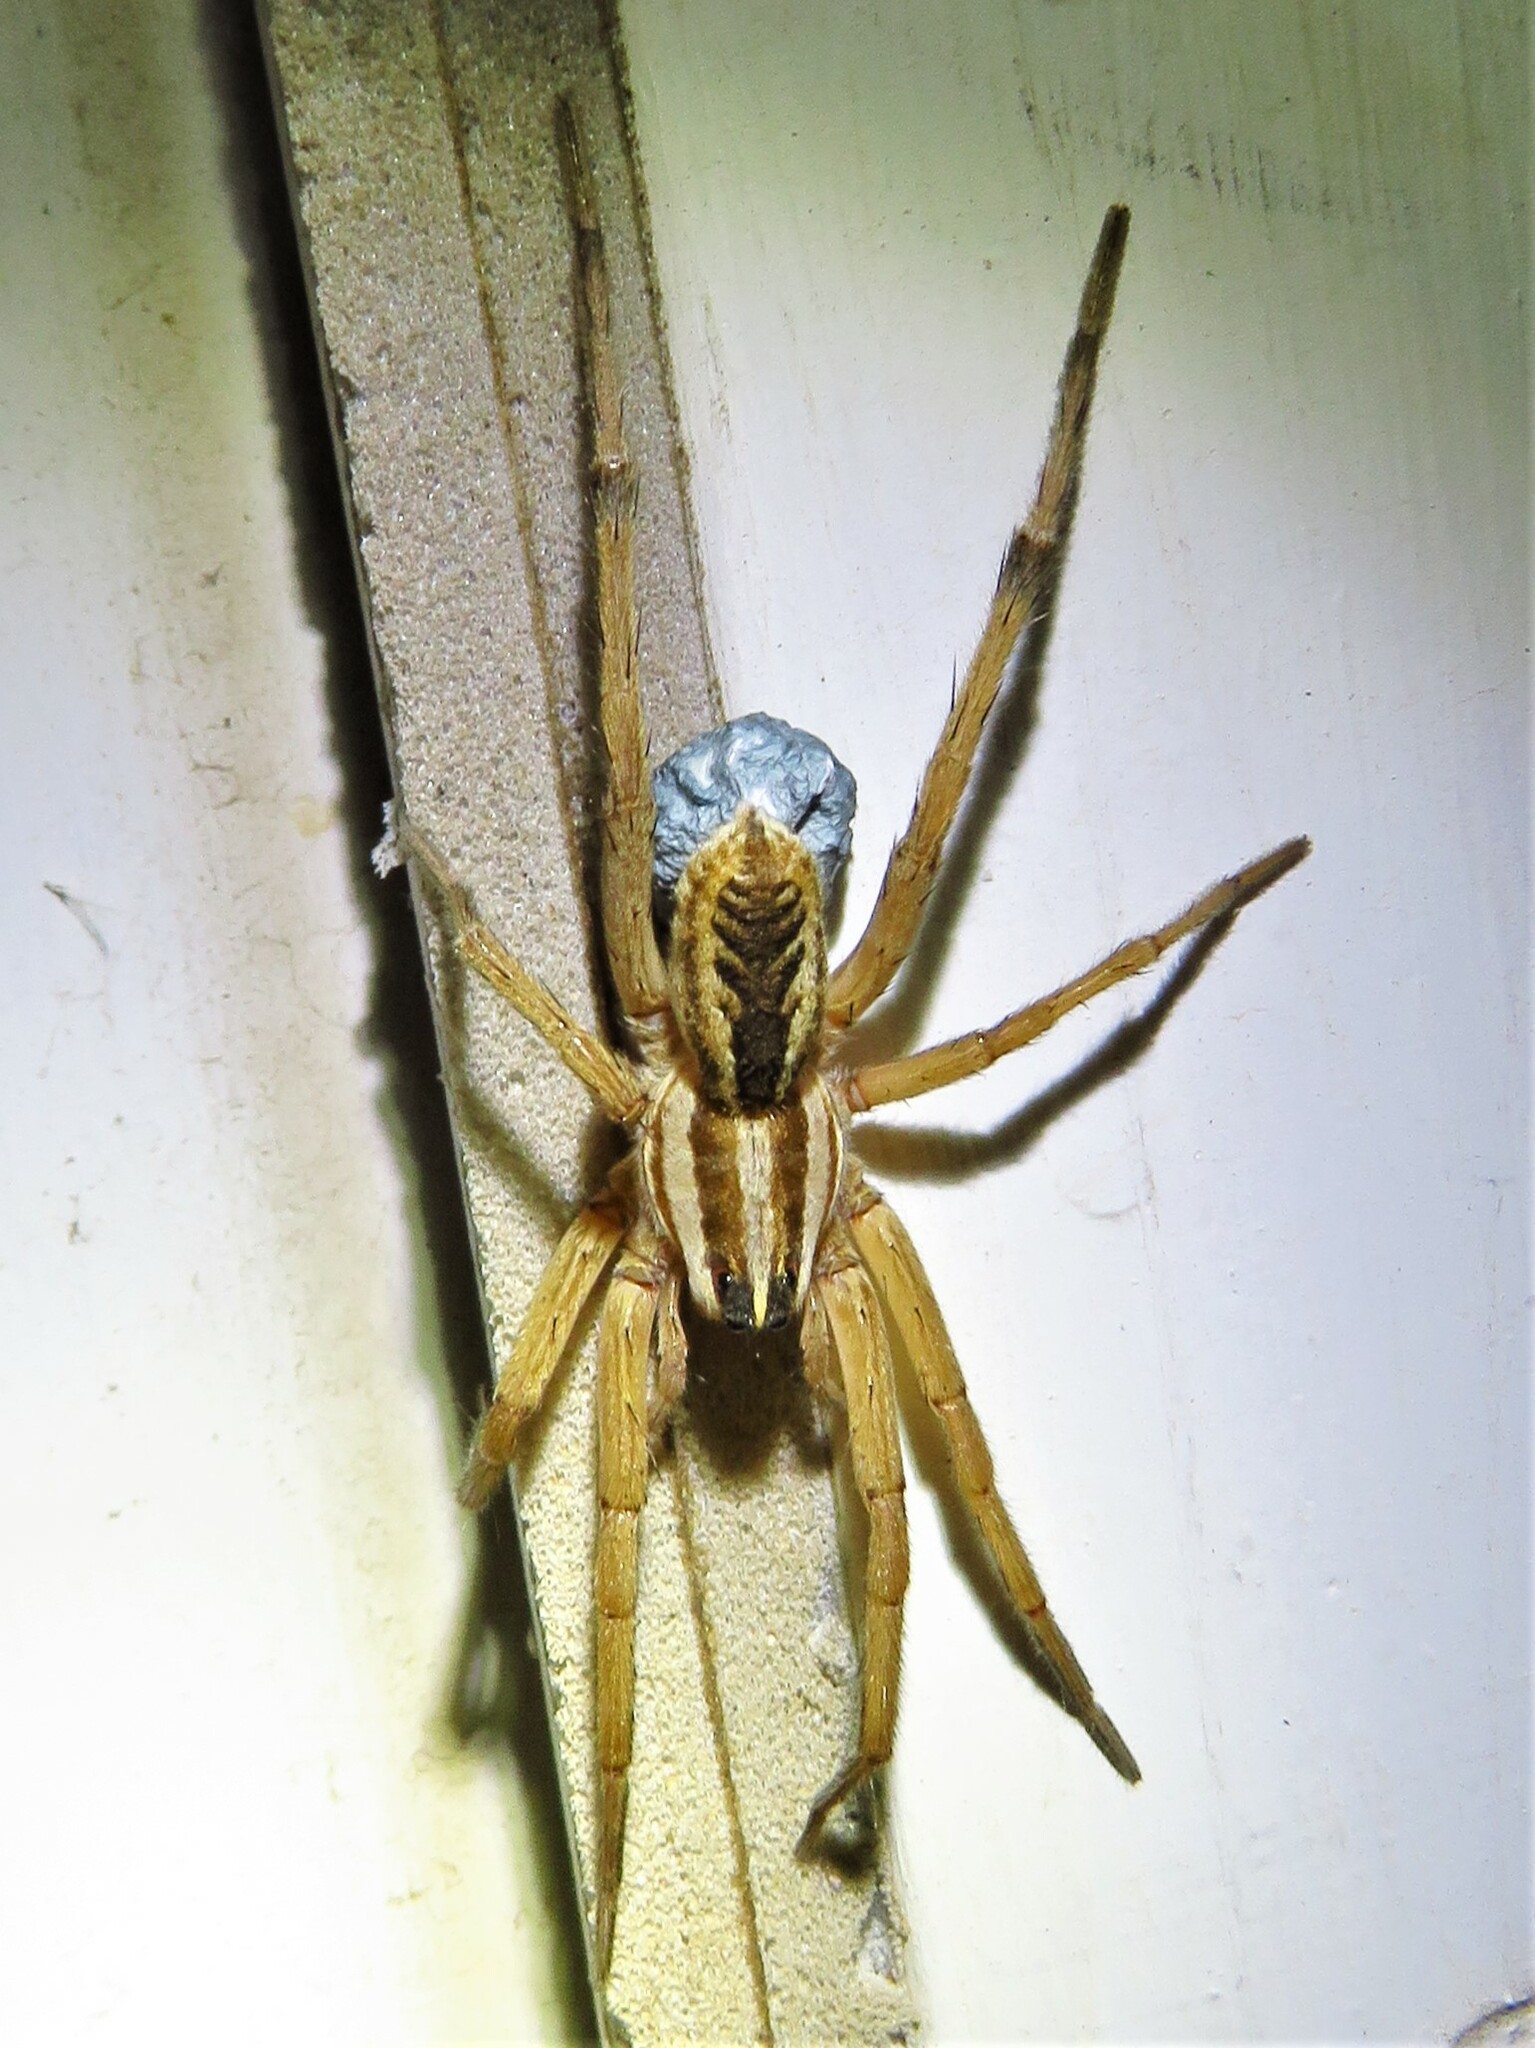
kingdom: Animalia
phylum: Arthropoda
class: Arachnida
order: Araneae
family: Lycosidae
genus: Rabidosa
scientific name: Rabidosa rabida
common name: Rabid wolf spider
